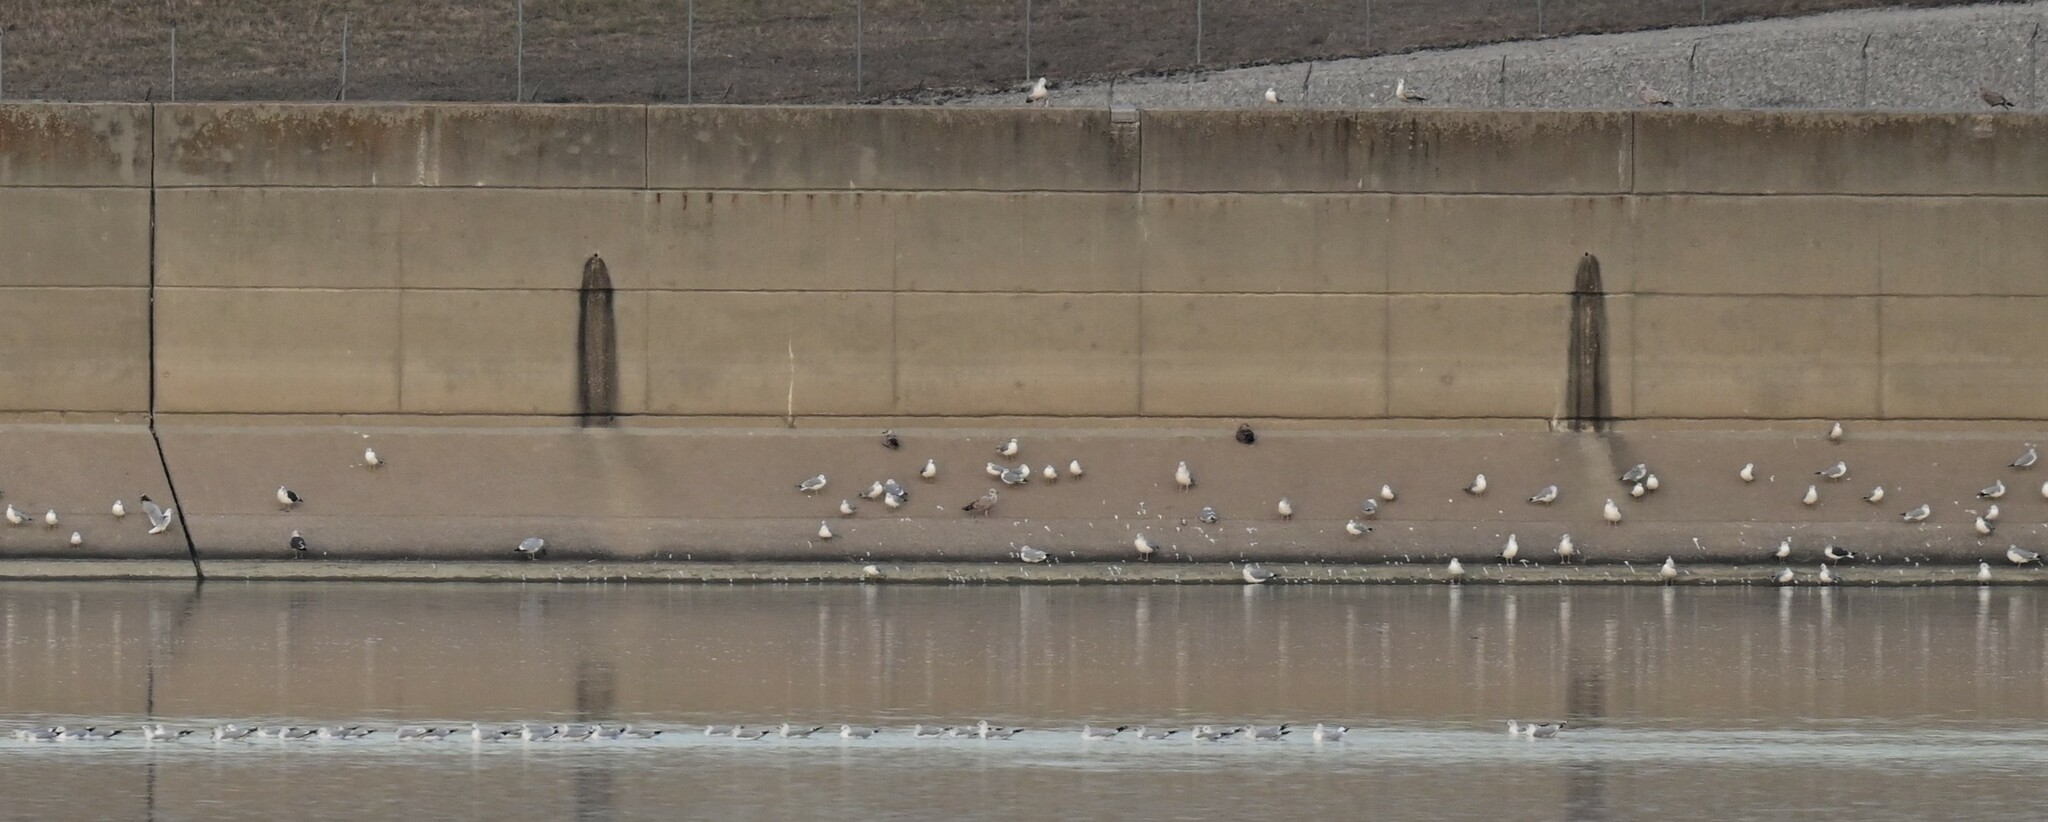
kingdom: Animalia
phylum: Chordata
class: Aves
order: Charadriiformes
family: Laridae
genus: Larus
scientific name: Larus fuscus
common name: Lesser black-backed gull
